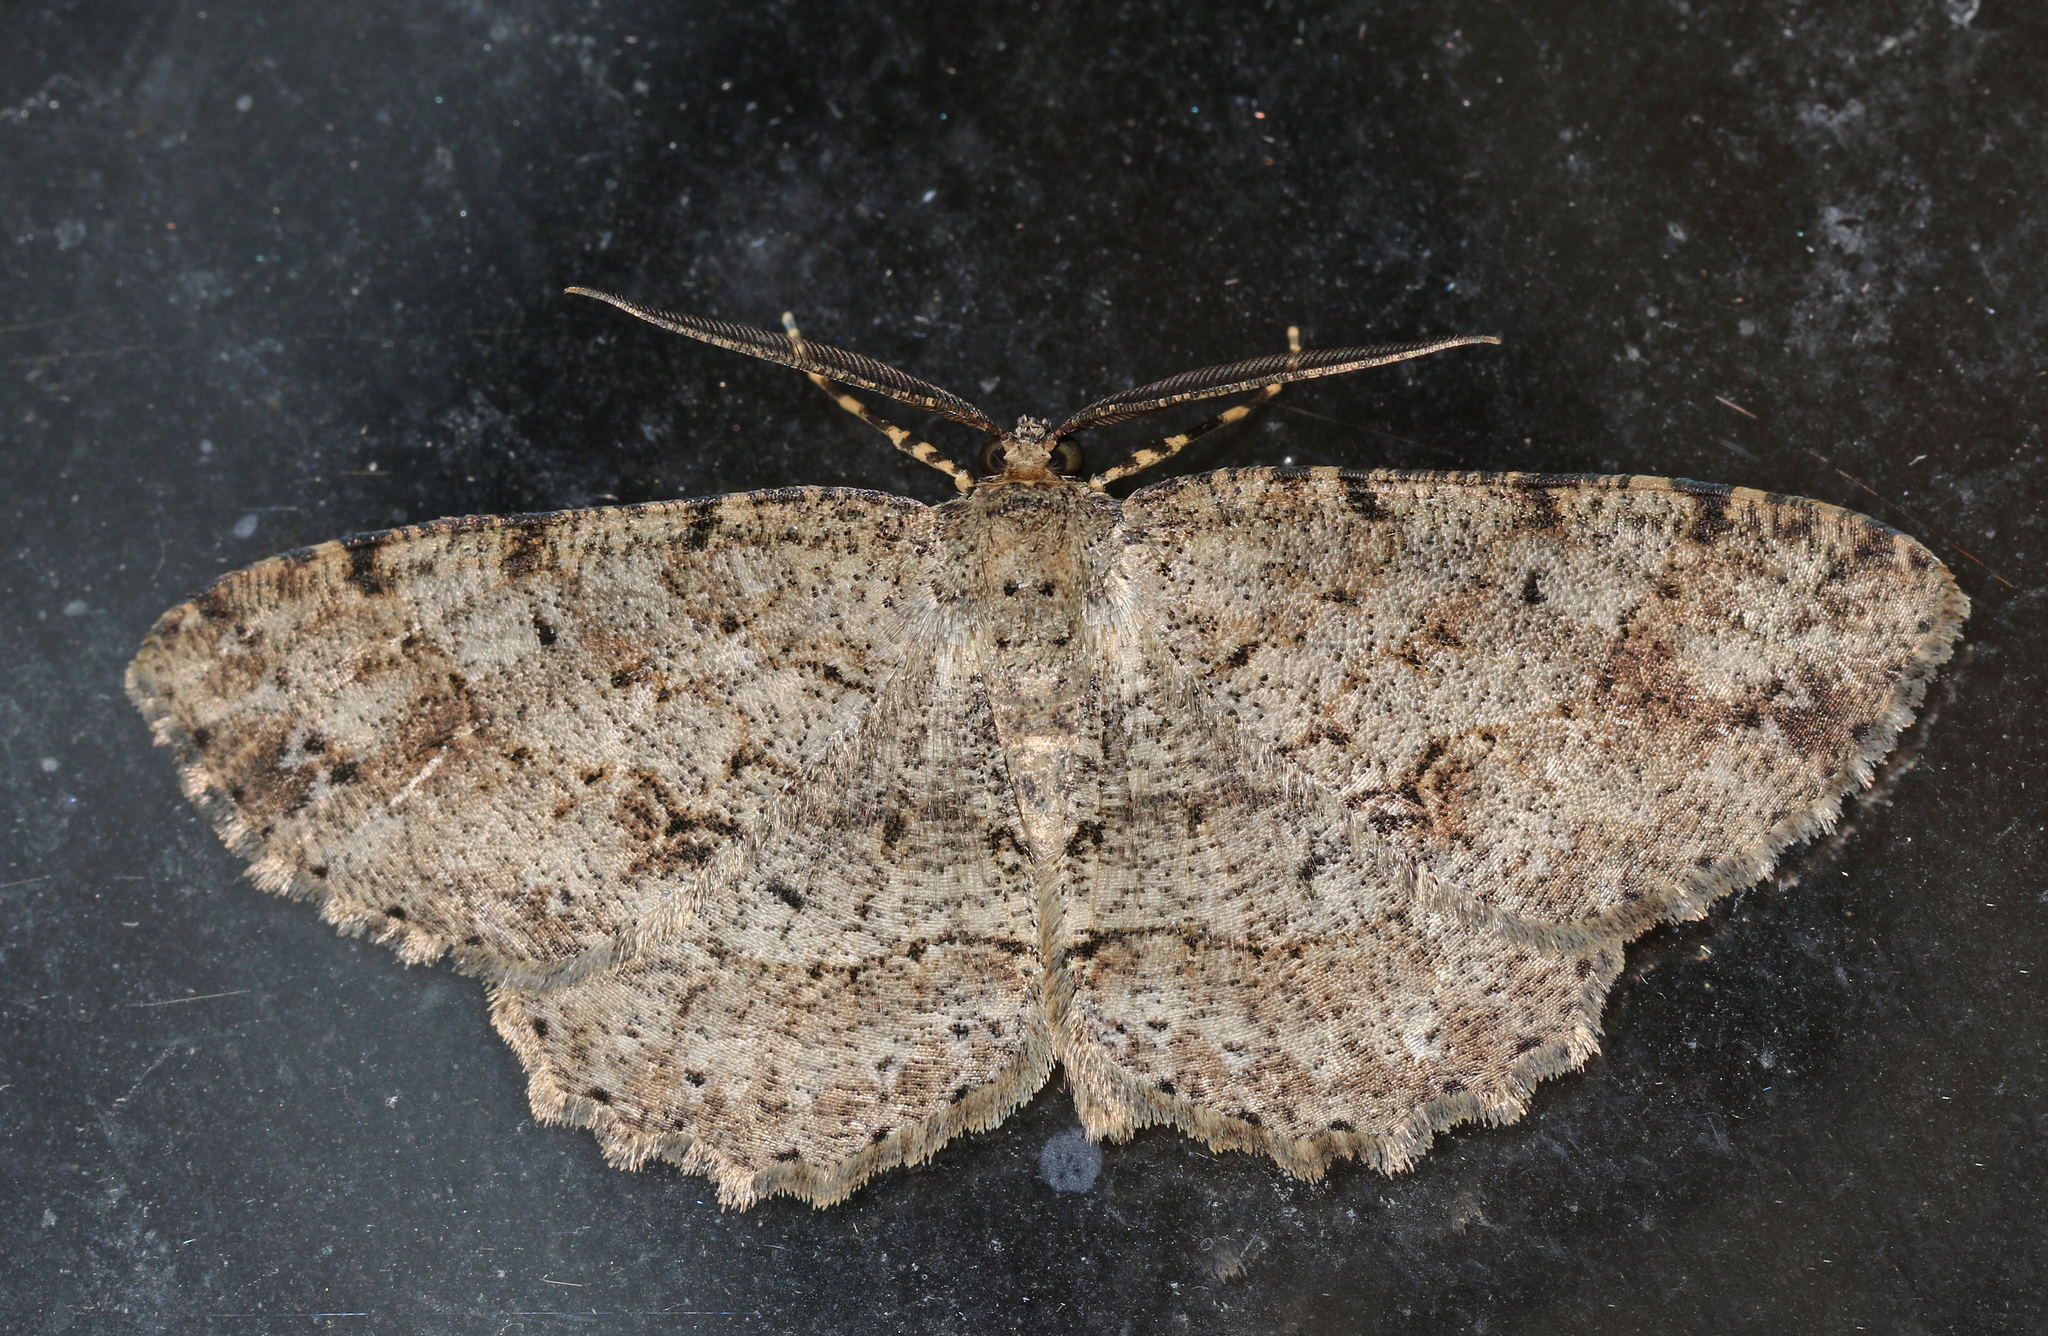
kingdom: Animalia
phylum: Arthropoda
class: Insecta
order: Lepidoptera
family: Geometridae
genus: Melanolophia
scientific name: Melanolophia canadaria
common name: Canadian melanolophia
